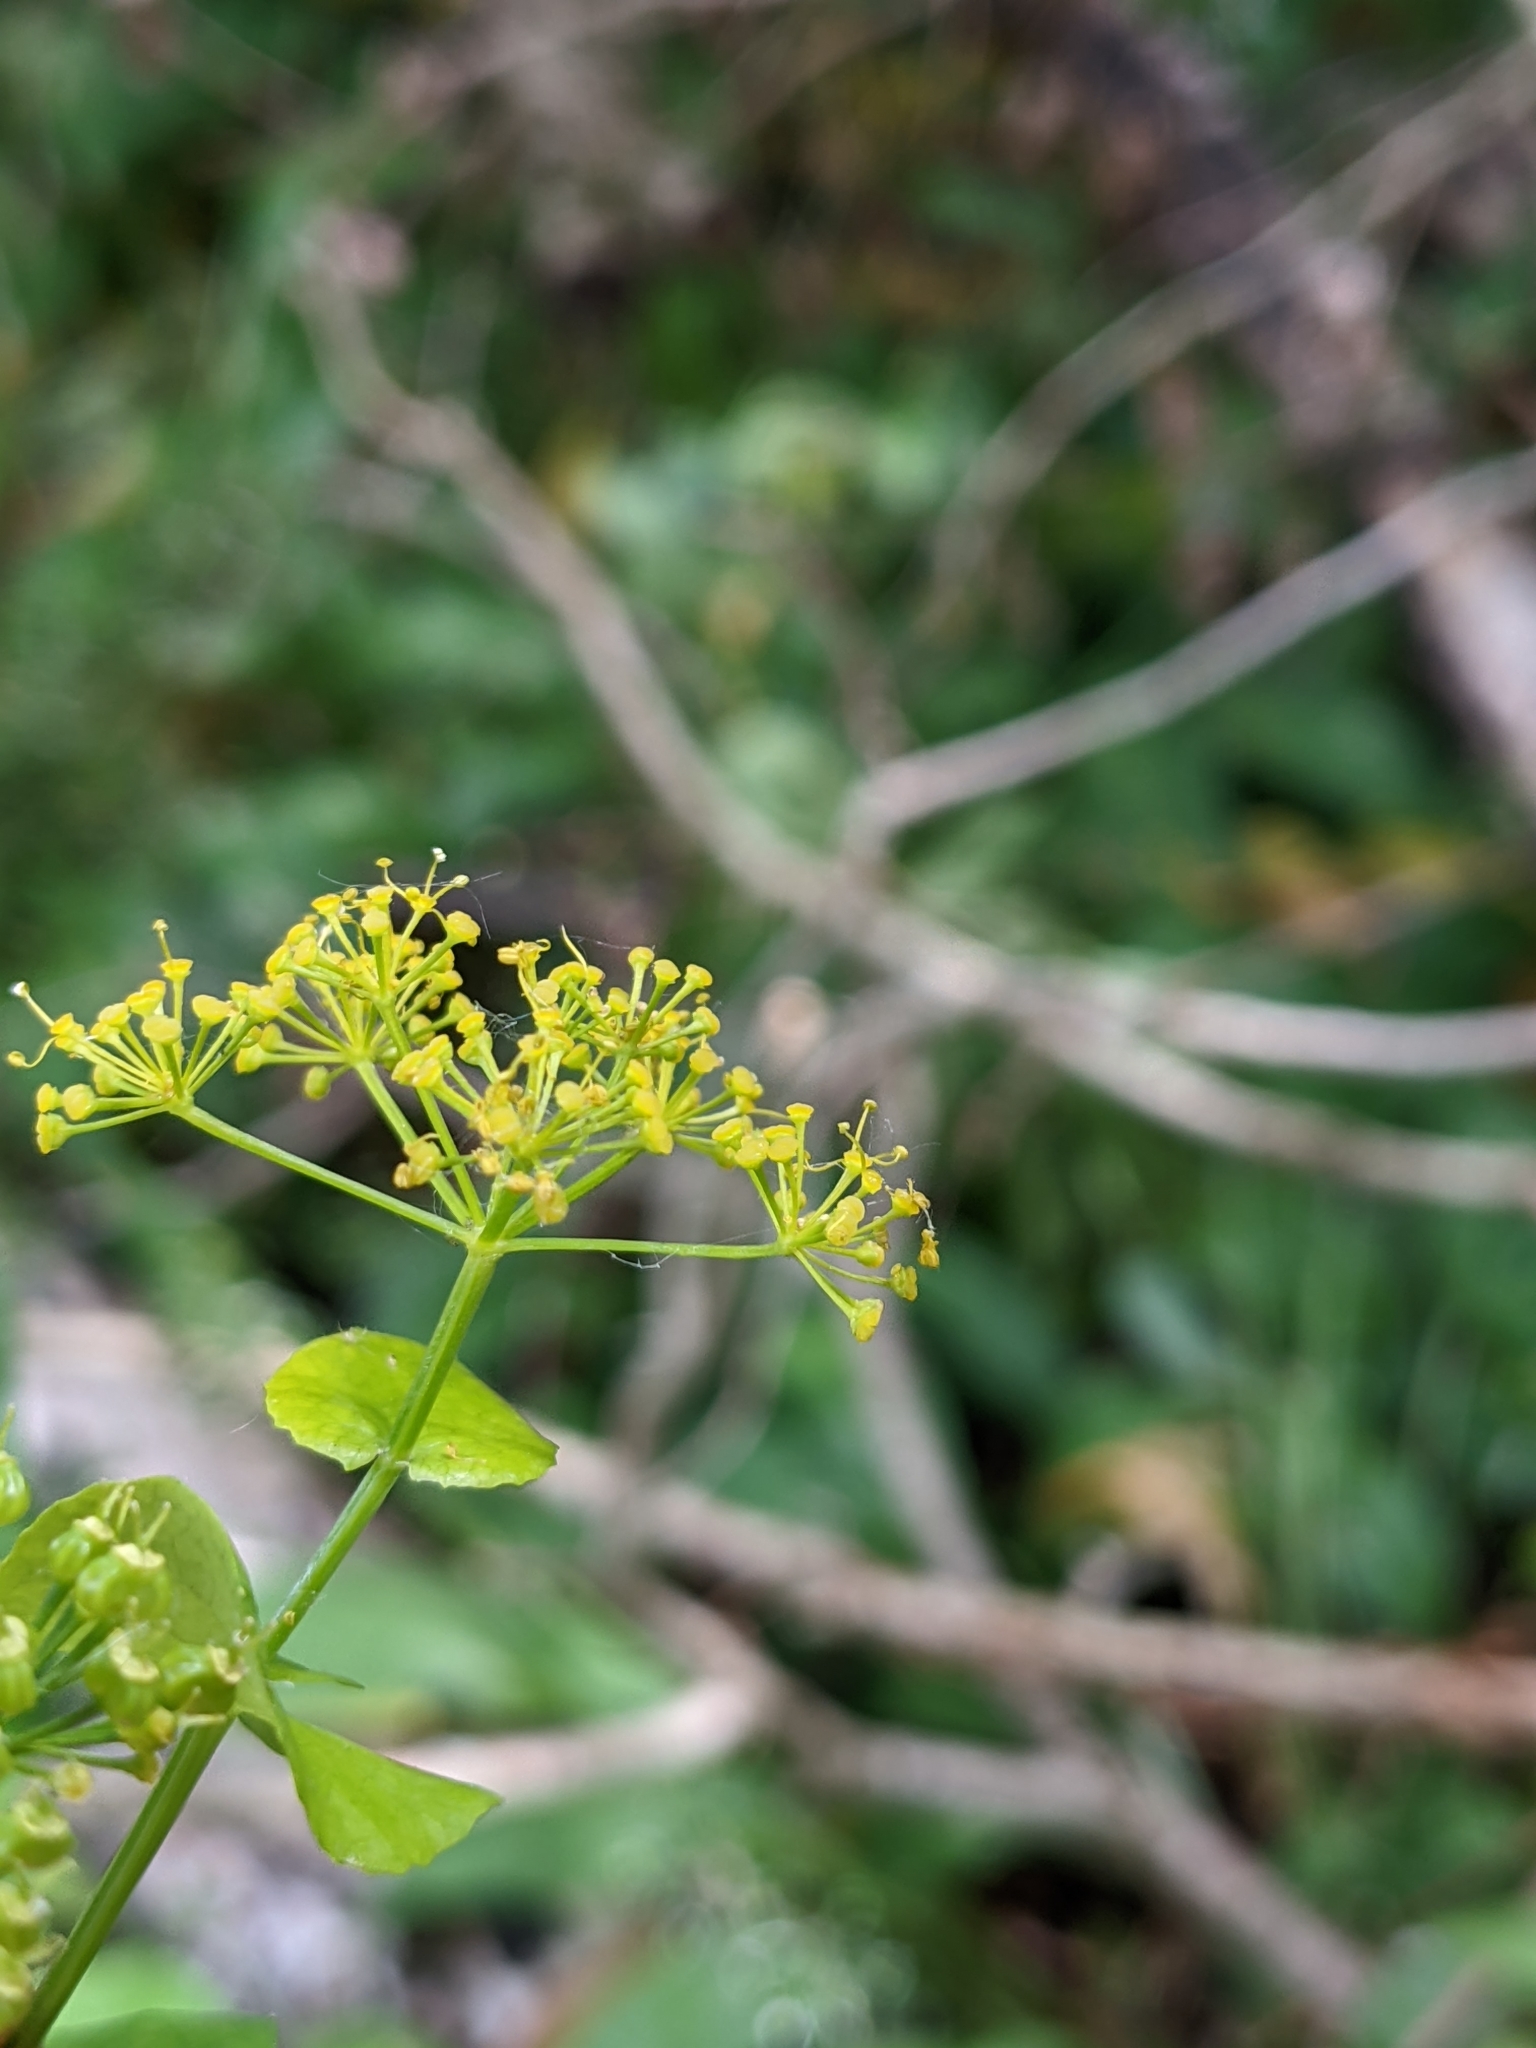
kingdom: Plantae
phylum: Tracheophyta
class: Magnoliopsida
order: Apiales
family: Apiaceae
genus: Smyrnium
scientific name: Smyrnium perfoliatum
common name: Perfoliate alexanders
